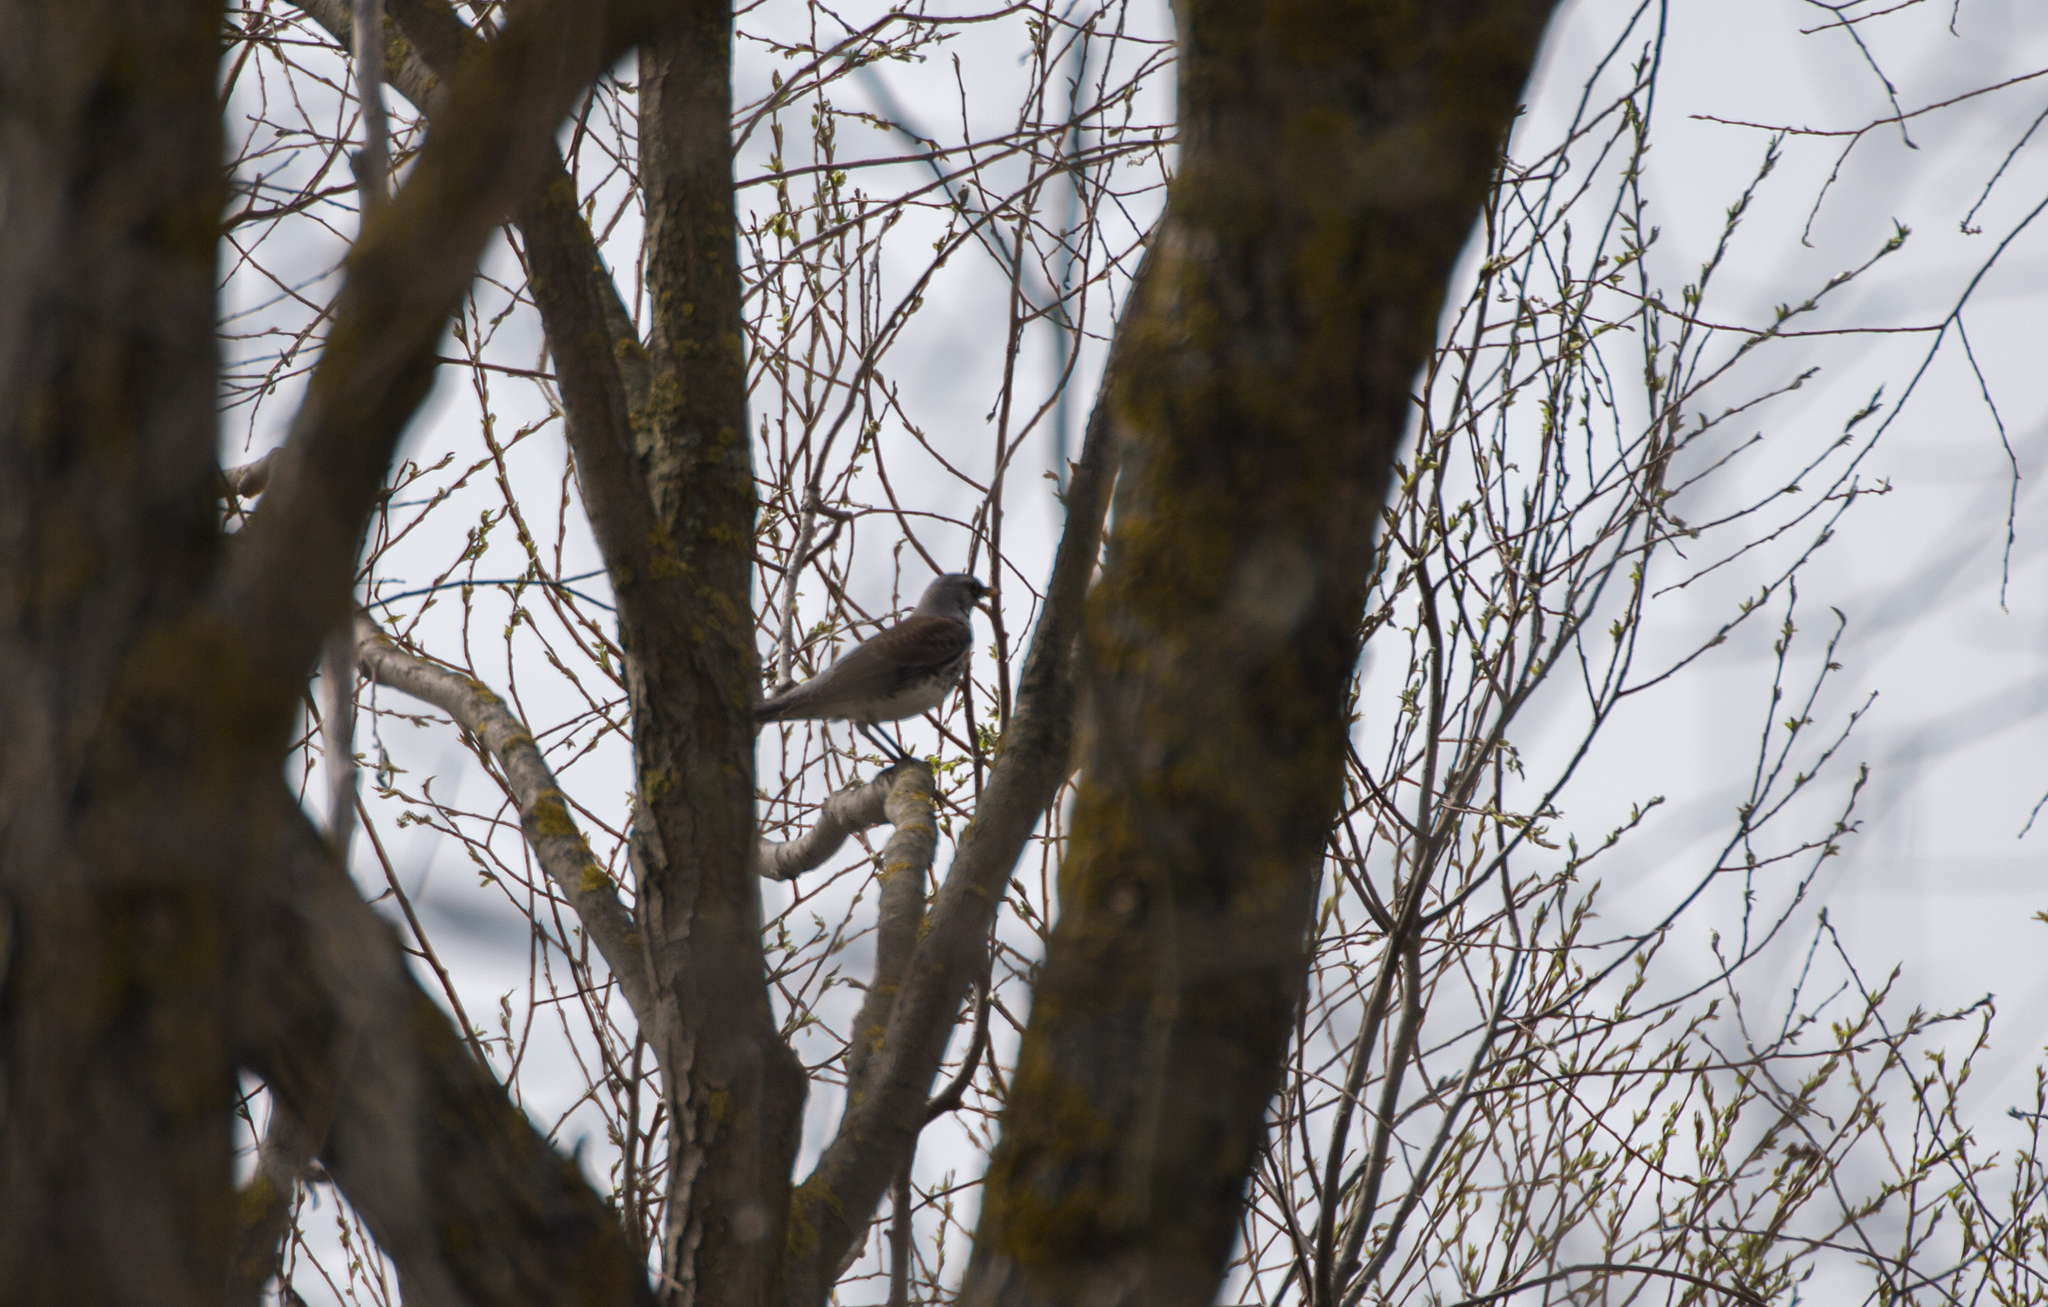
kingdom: Animalia
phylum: Chordata
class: Aves
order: Passeriformes
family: Turdidae
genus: Turdus
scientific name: Turdus pilaris
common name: Fieldfare
